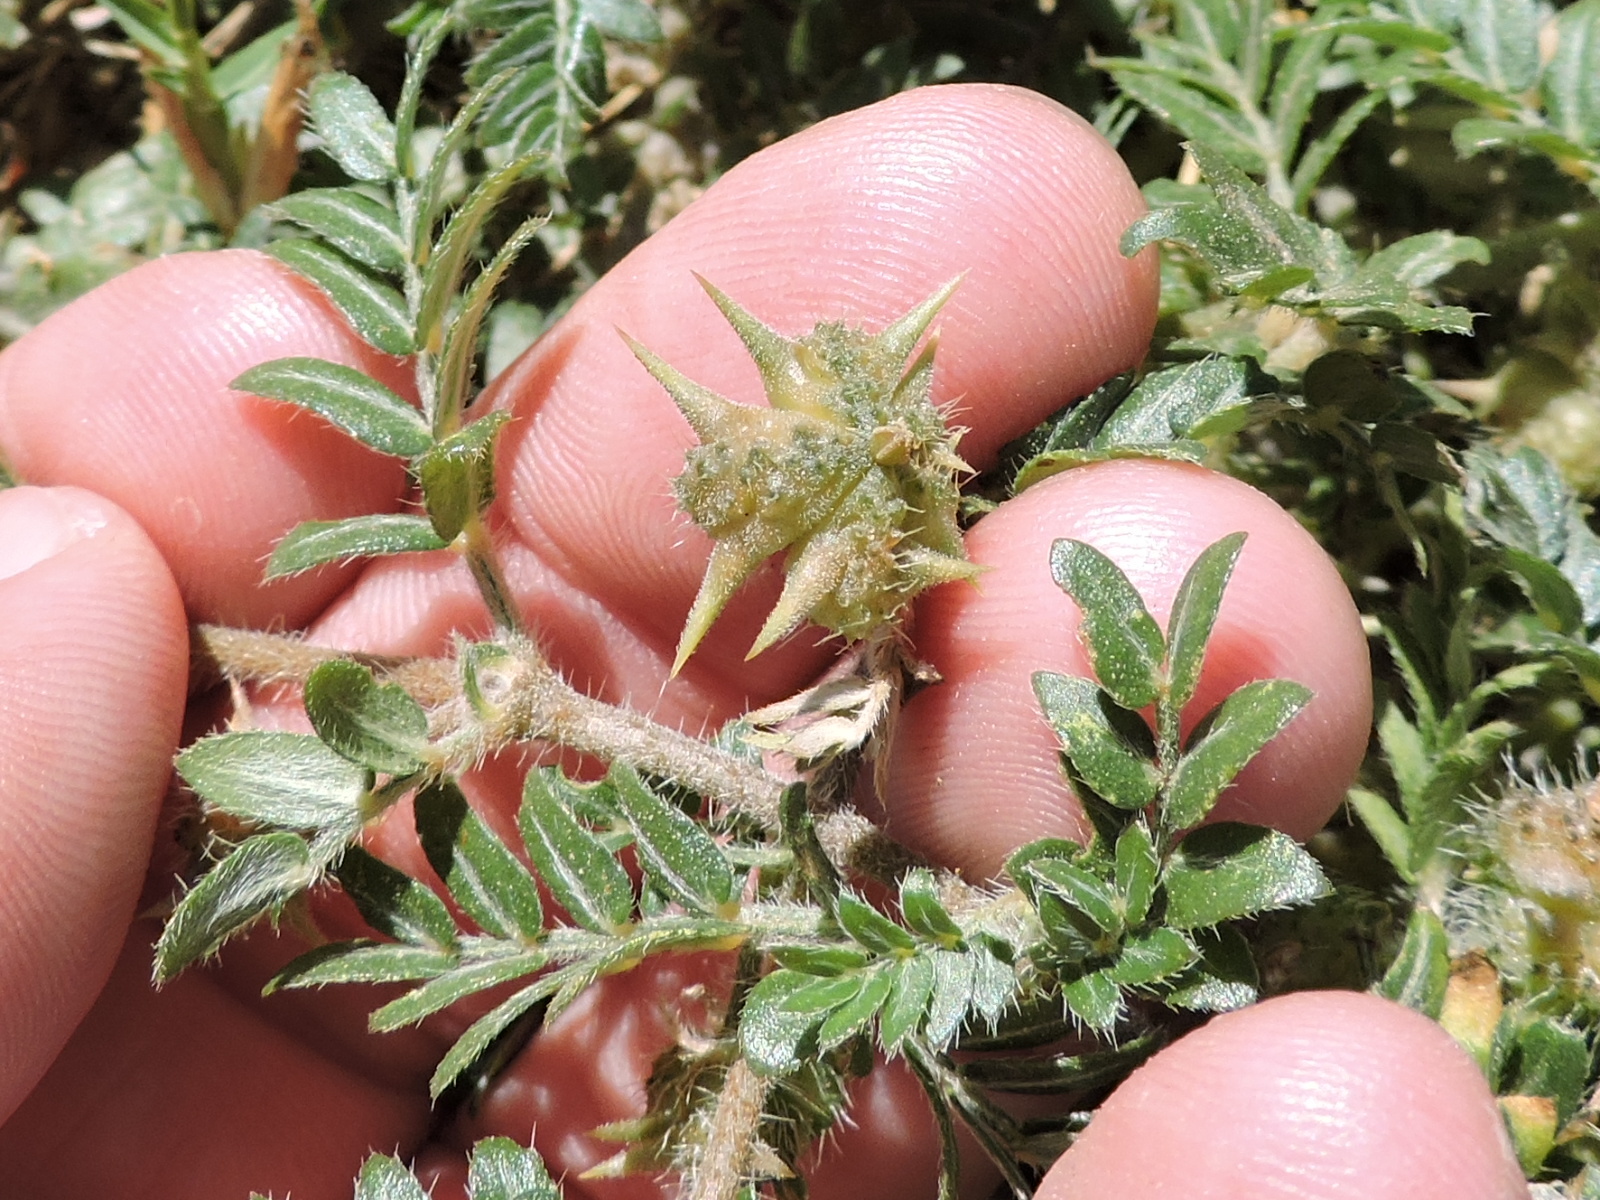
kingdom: Plantae
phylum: Tracheophyta
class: Magnoliopsida
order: Zygophyllales
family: Zygophyllaceae
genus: Tribulus
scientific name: Tribulus terrestris
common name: Puncturevine
